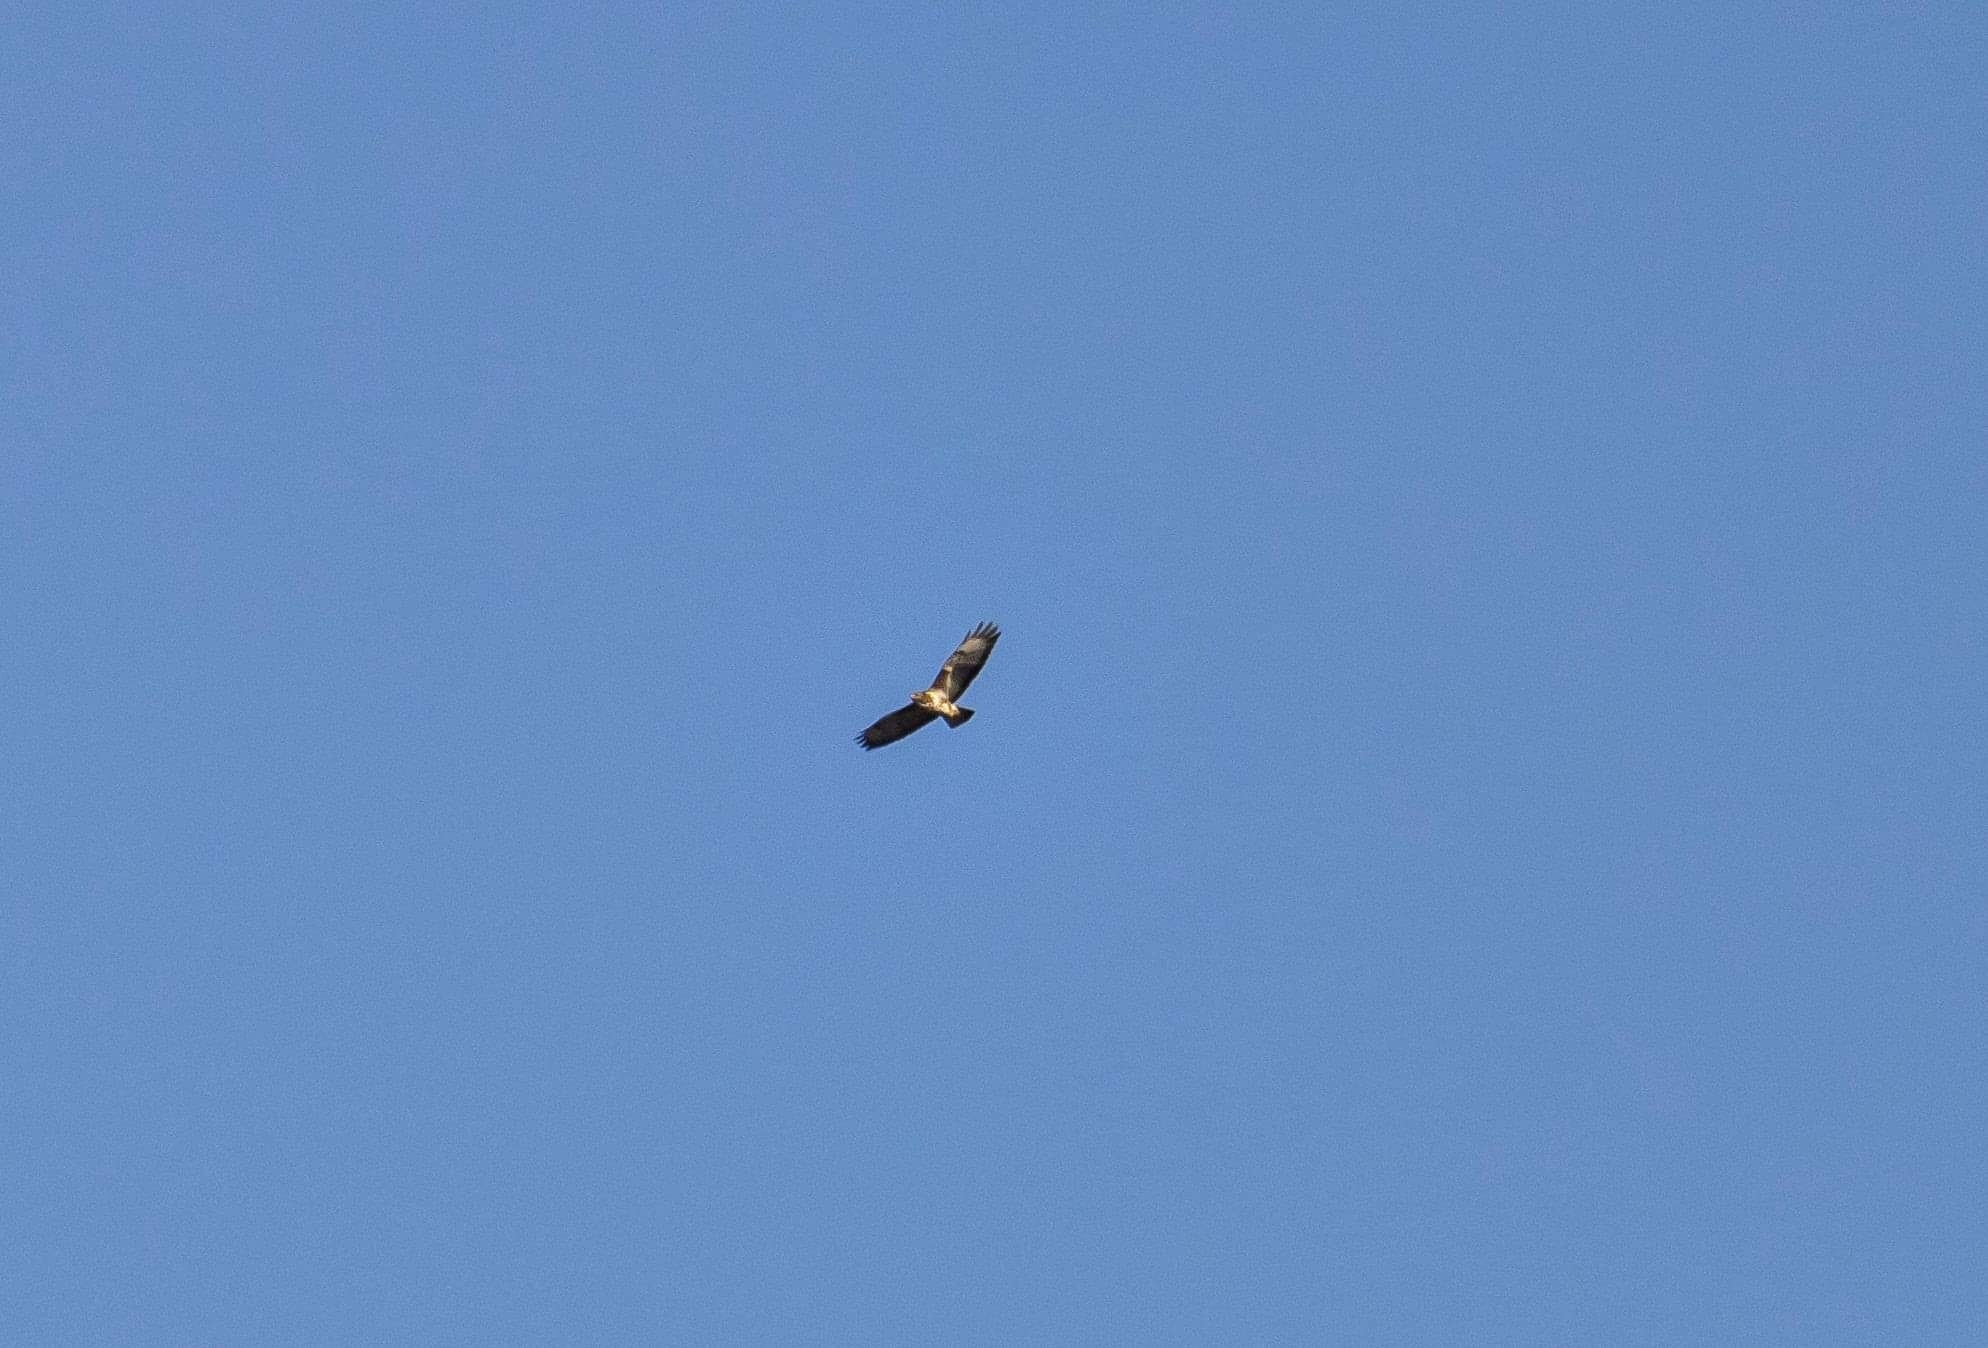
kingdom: Animalia
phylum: Chordata
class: Aves
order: Accipitriformes
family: Accipitridae
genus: Buteo
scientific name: Buteo buteo
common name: Common buzzard
